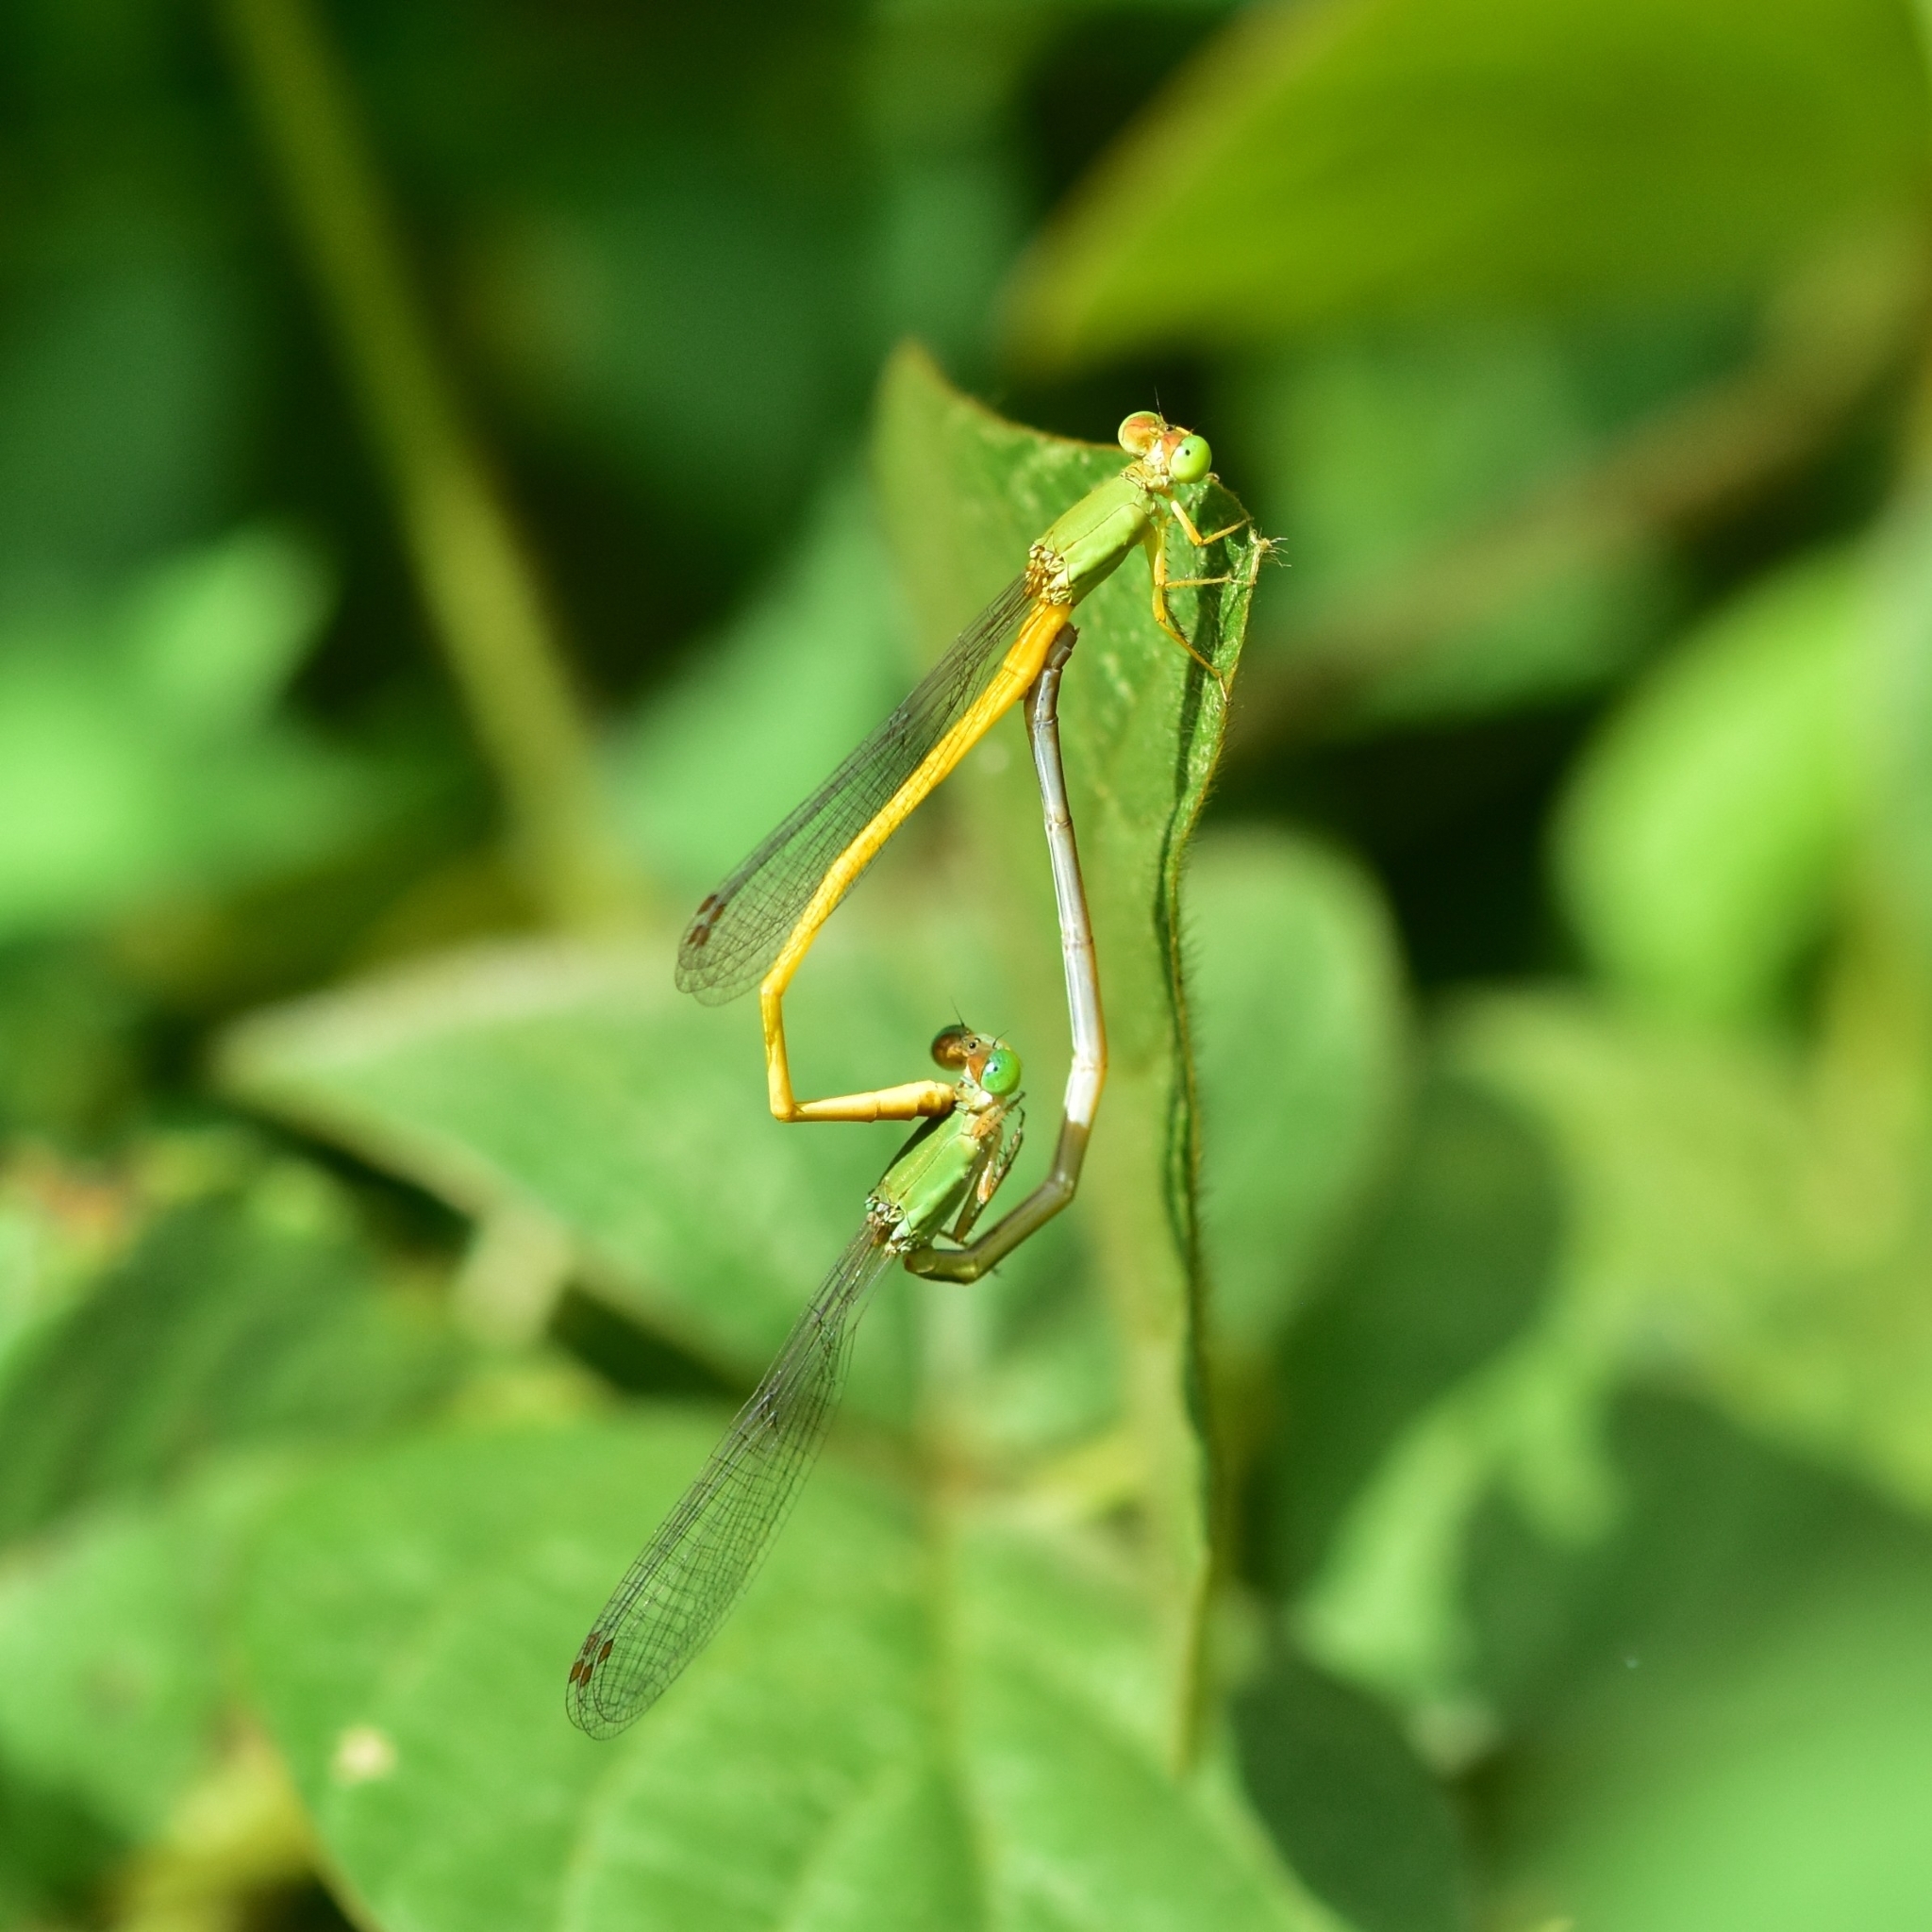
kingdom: Animalia
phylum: Arthropoda
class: Insecta
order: Odonata
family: Coenagrionidae
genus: Ceriagrion
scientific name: Ceriagrion coromandelianum
